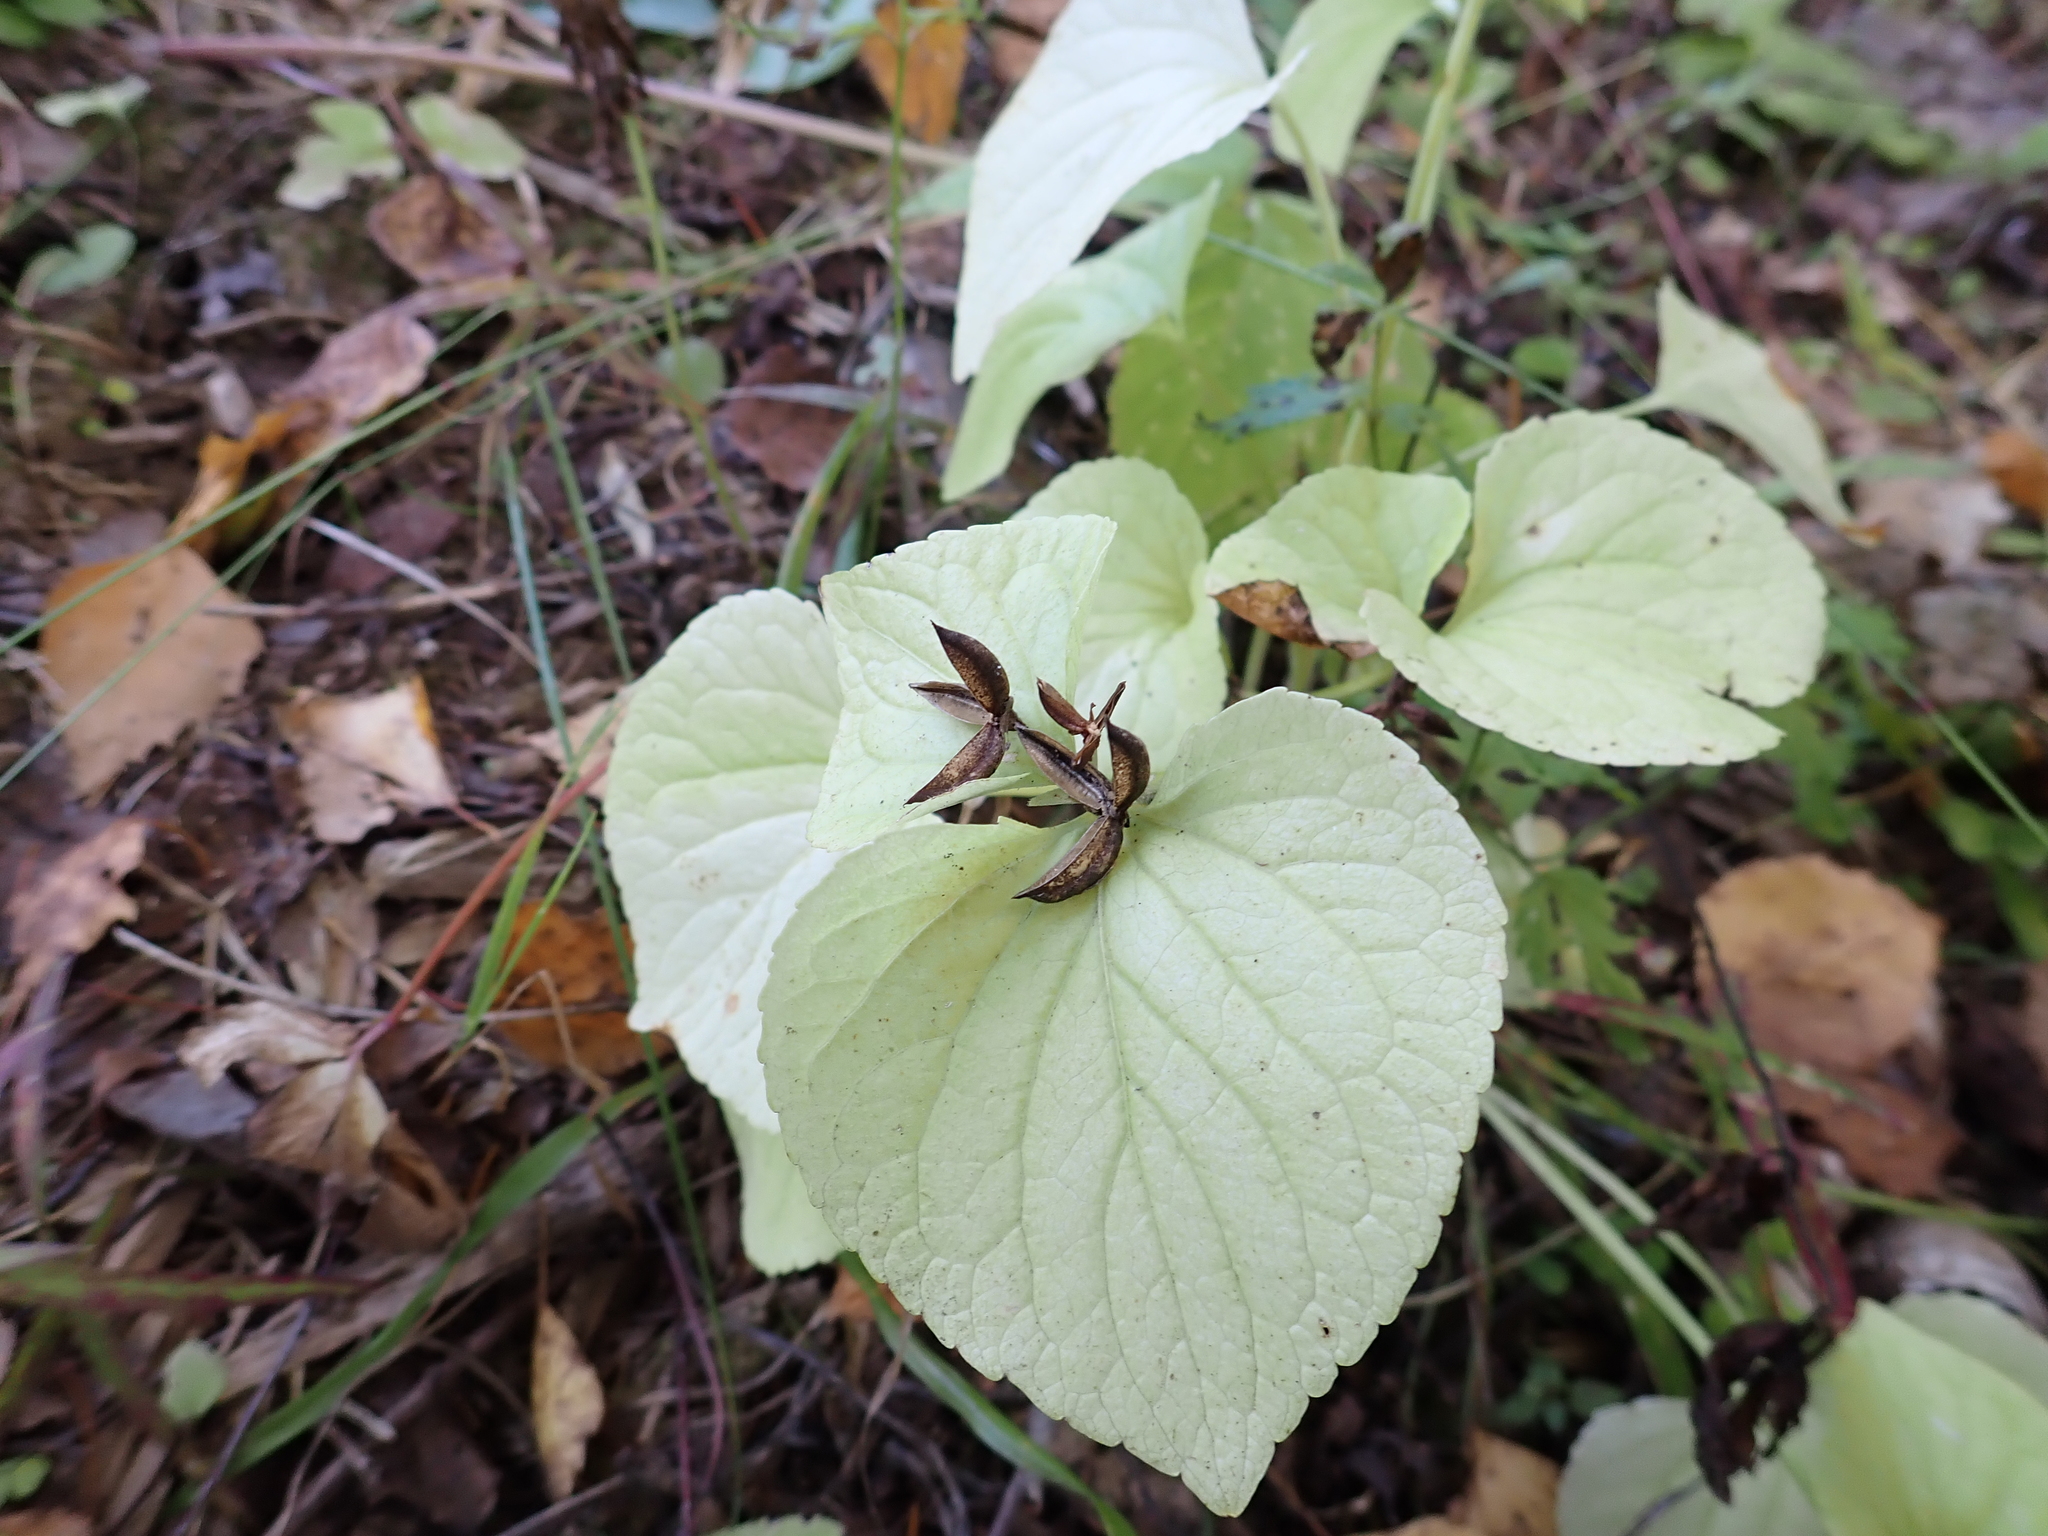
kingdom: Plantae
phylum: Tracheophyta
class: Magnoliopsida
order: Malpighiales
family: Violaceae
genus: Viola
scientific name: Viola mirabilis
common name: Wonder violet
